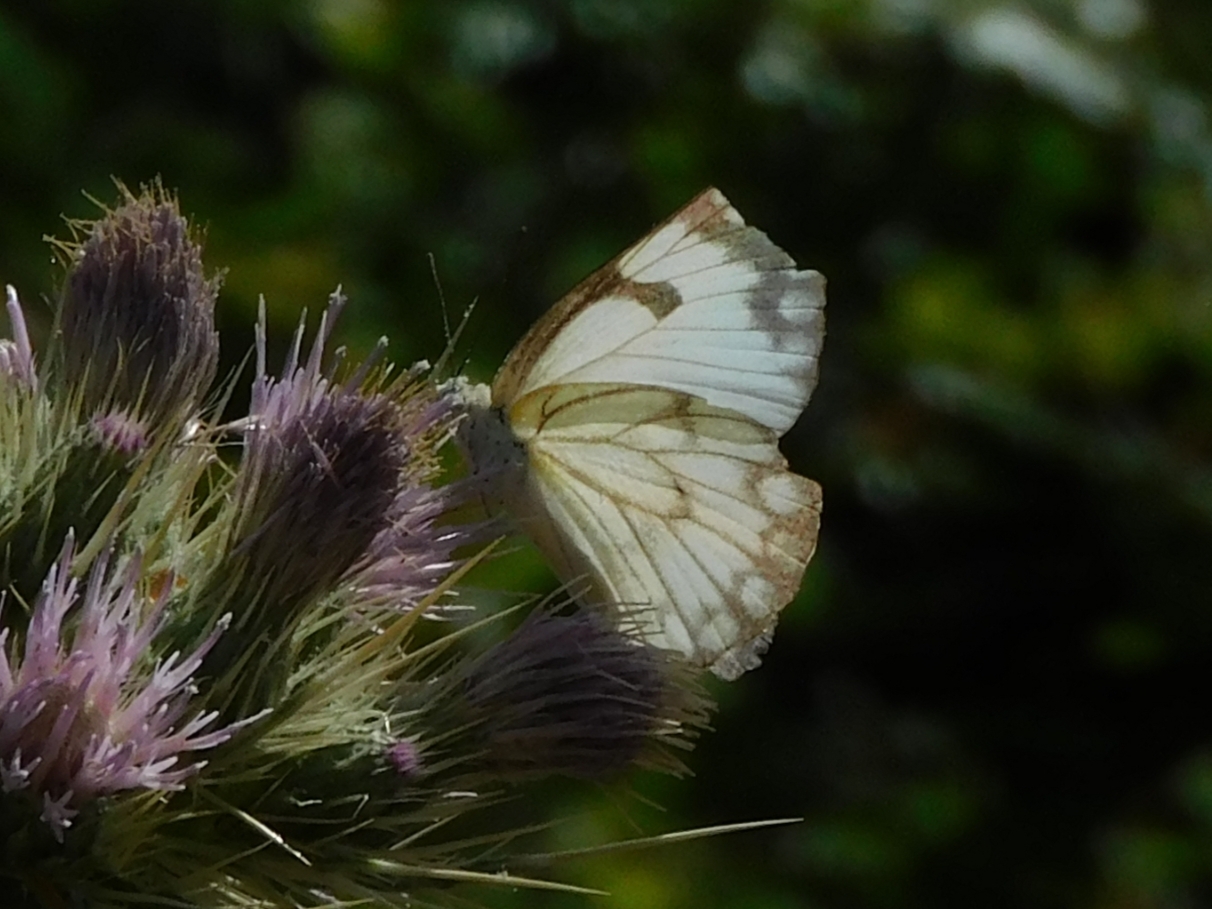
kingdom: Animalia
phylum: Arthropoda
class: Insecta
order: Lepidoptera
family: Pieridae
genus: Belenois
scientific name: Belenois aurota
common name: Brown-veined white
